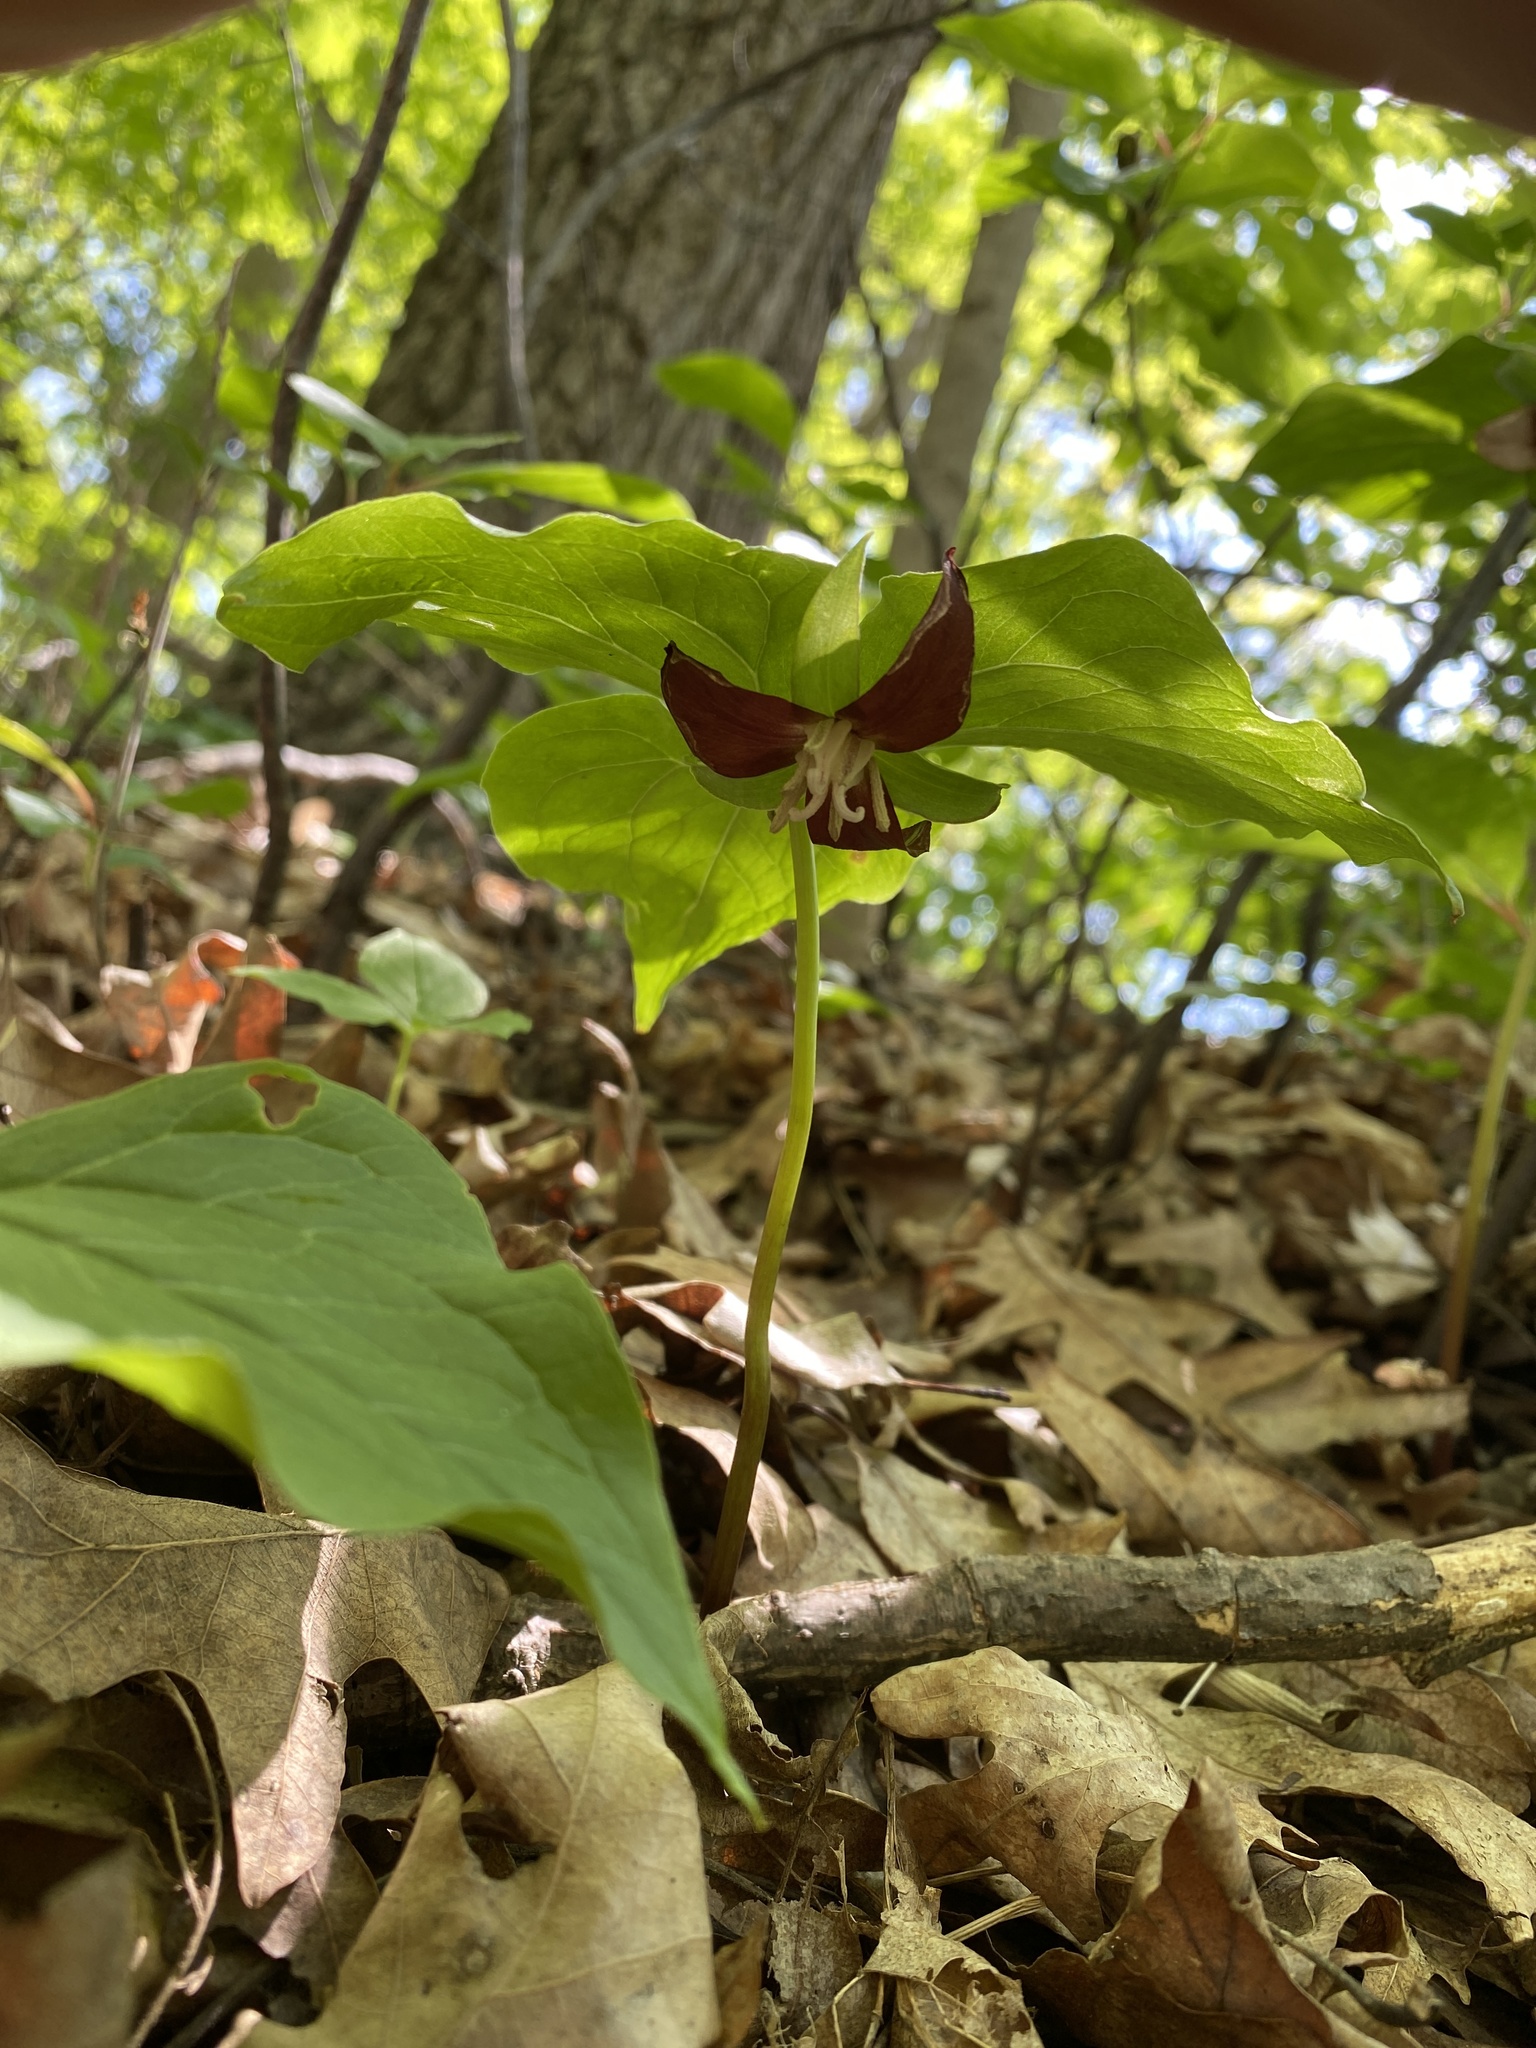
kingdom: Plantae
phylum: Tracheophyta
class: Liliopsida
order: Liliales
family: Melanthiaceae
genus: Trillium
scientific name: Trillium flexipes
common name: Drooping trillium
